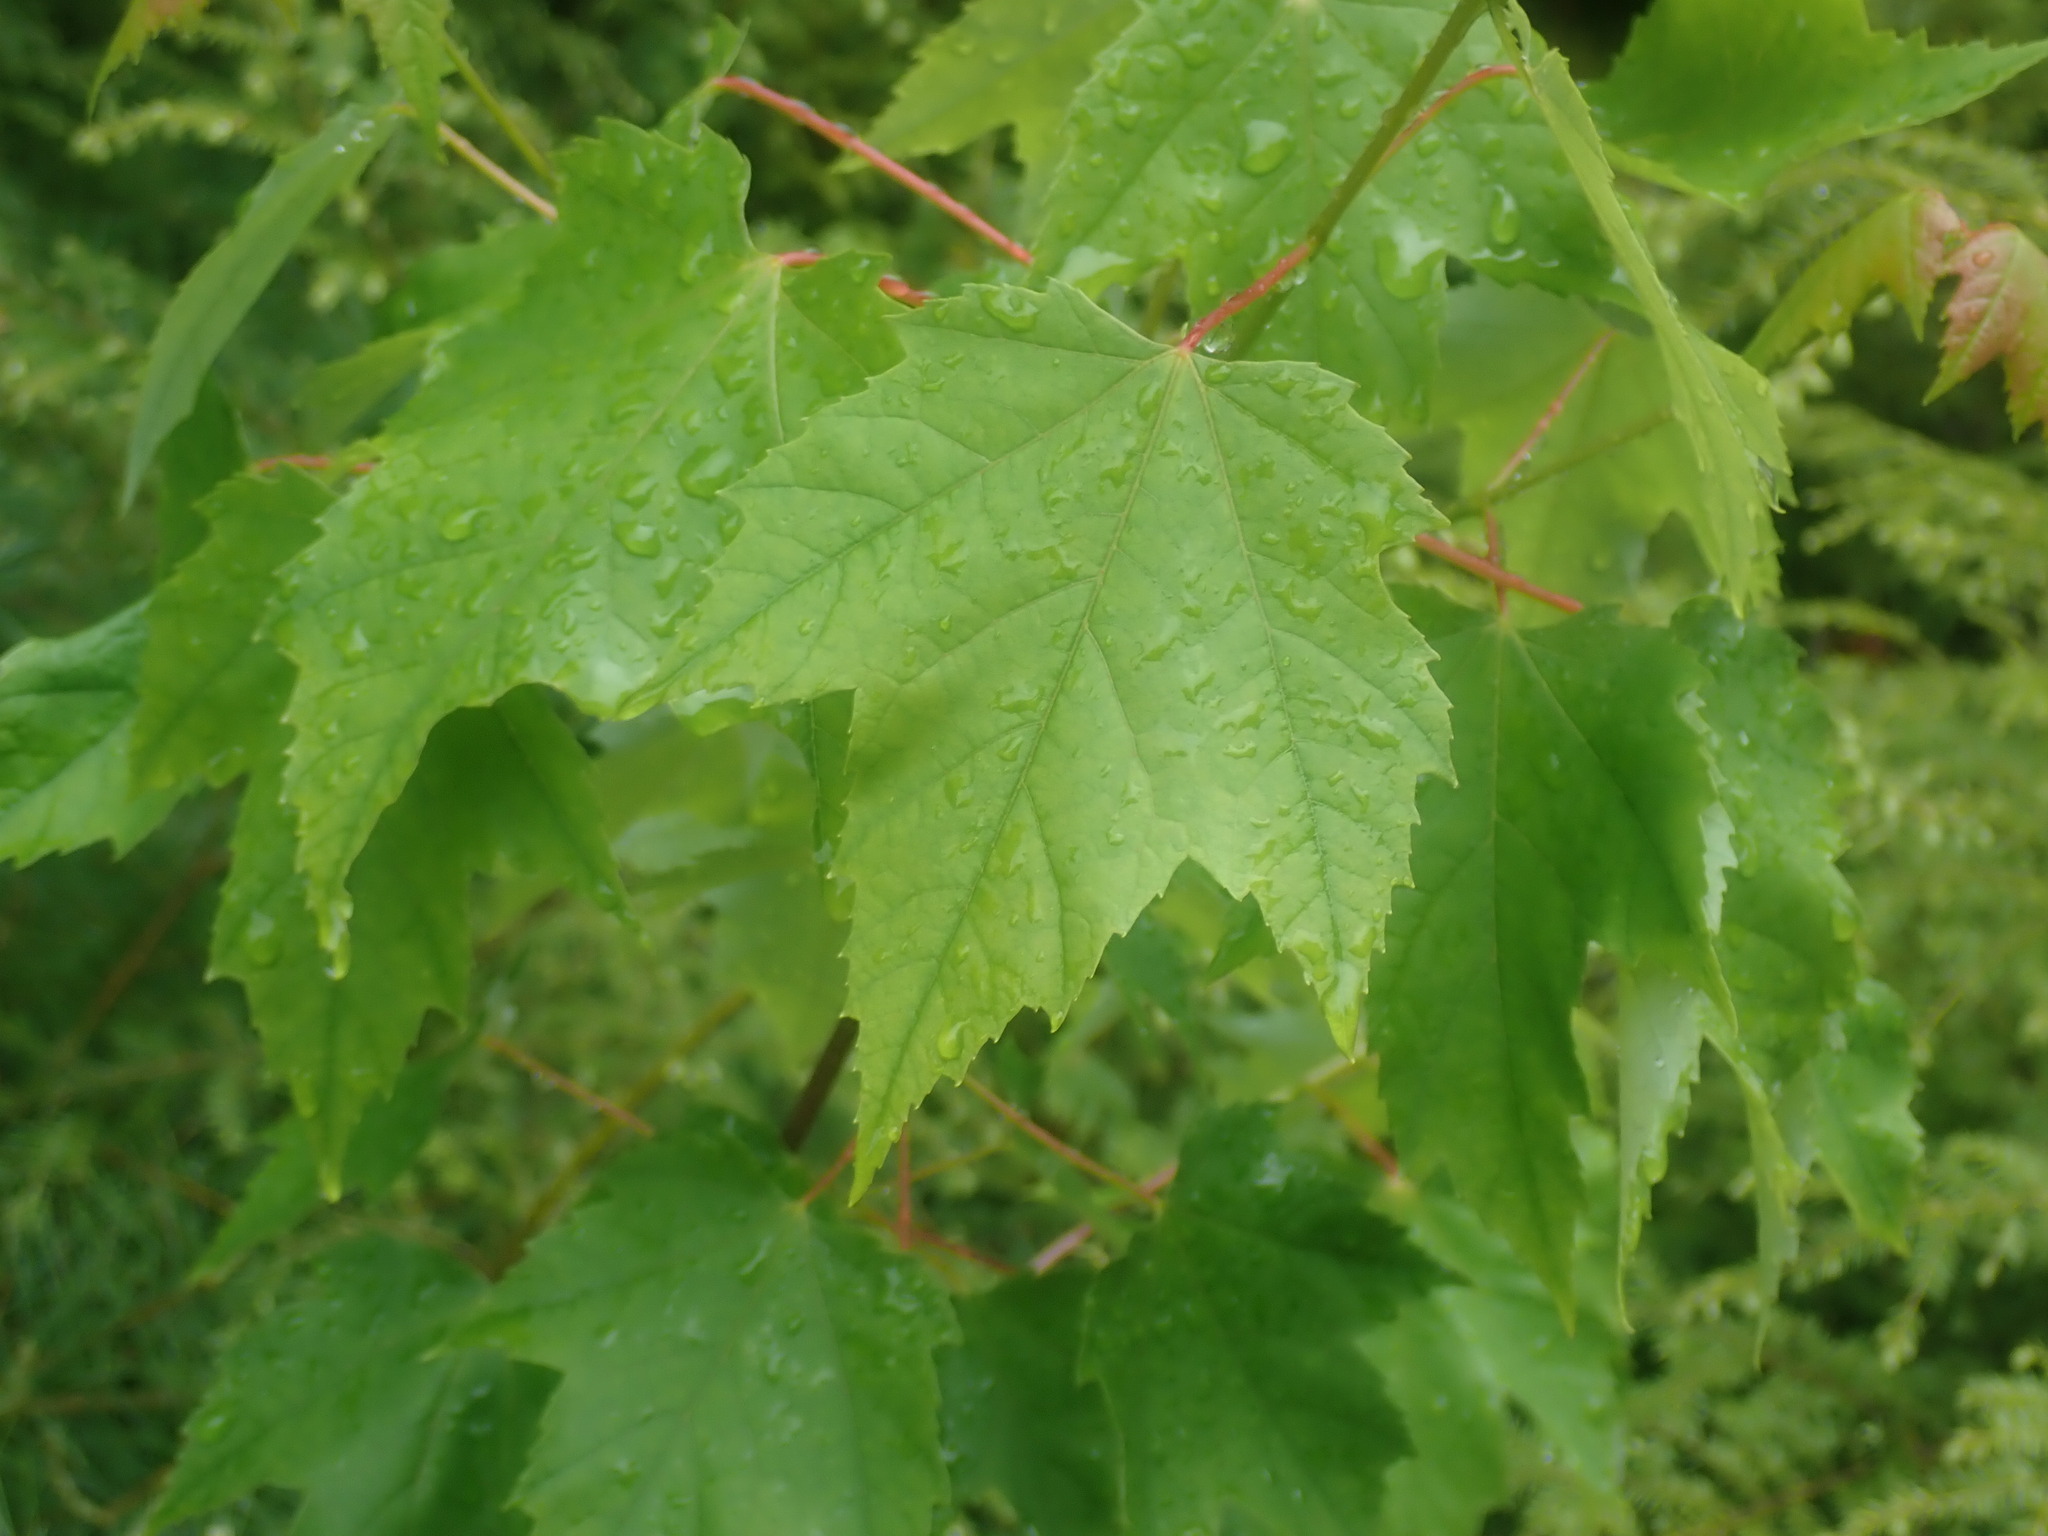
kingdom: Plantae
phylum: Tracheophyta
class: Magnoliopsida
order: Sapindales
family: Sapindaceae
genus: Acer
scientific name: Acer rubrum
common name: Red maple
